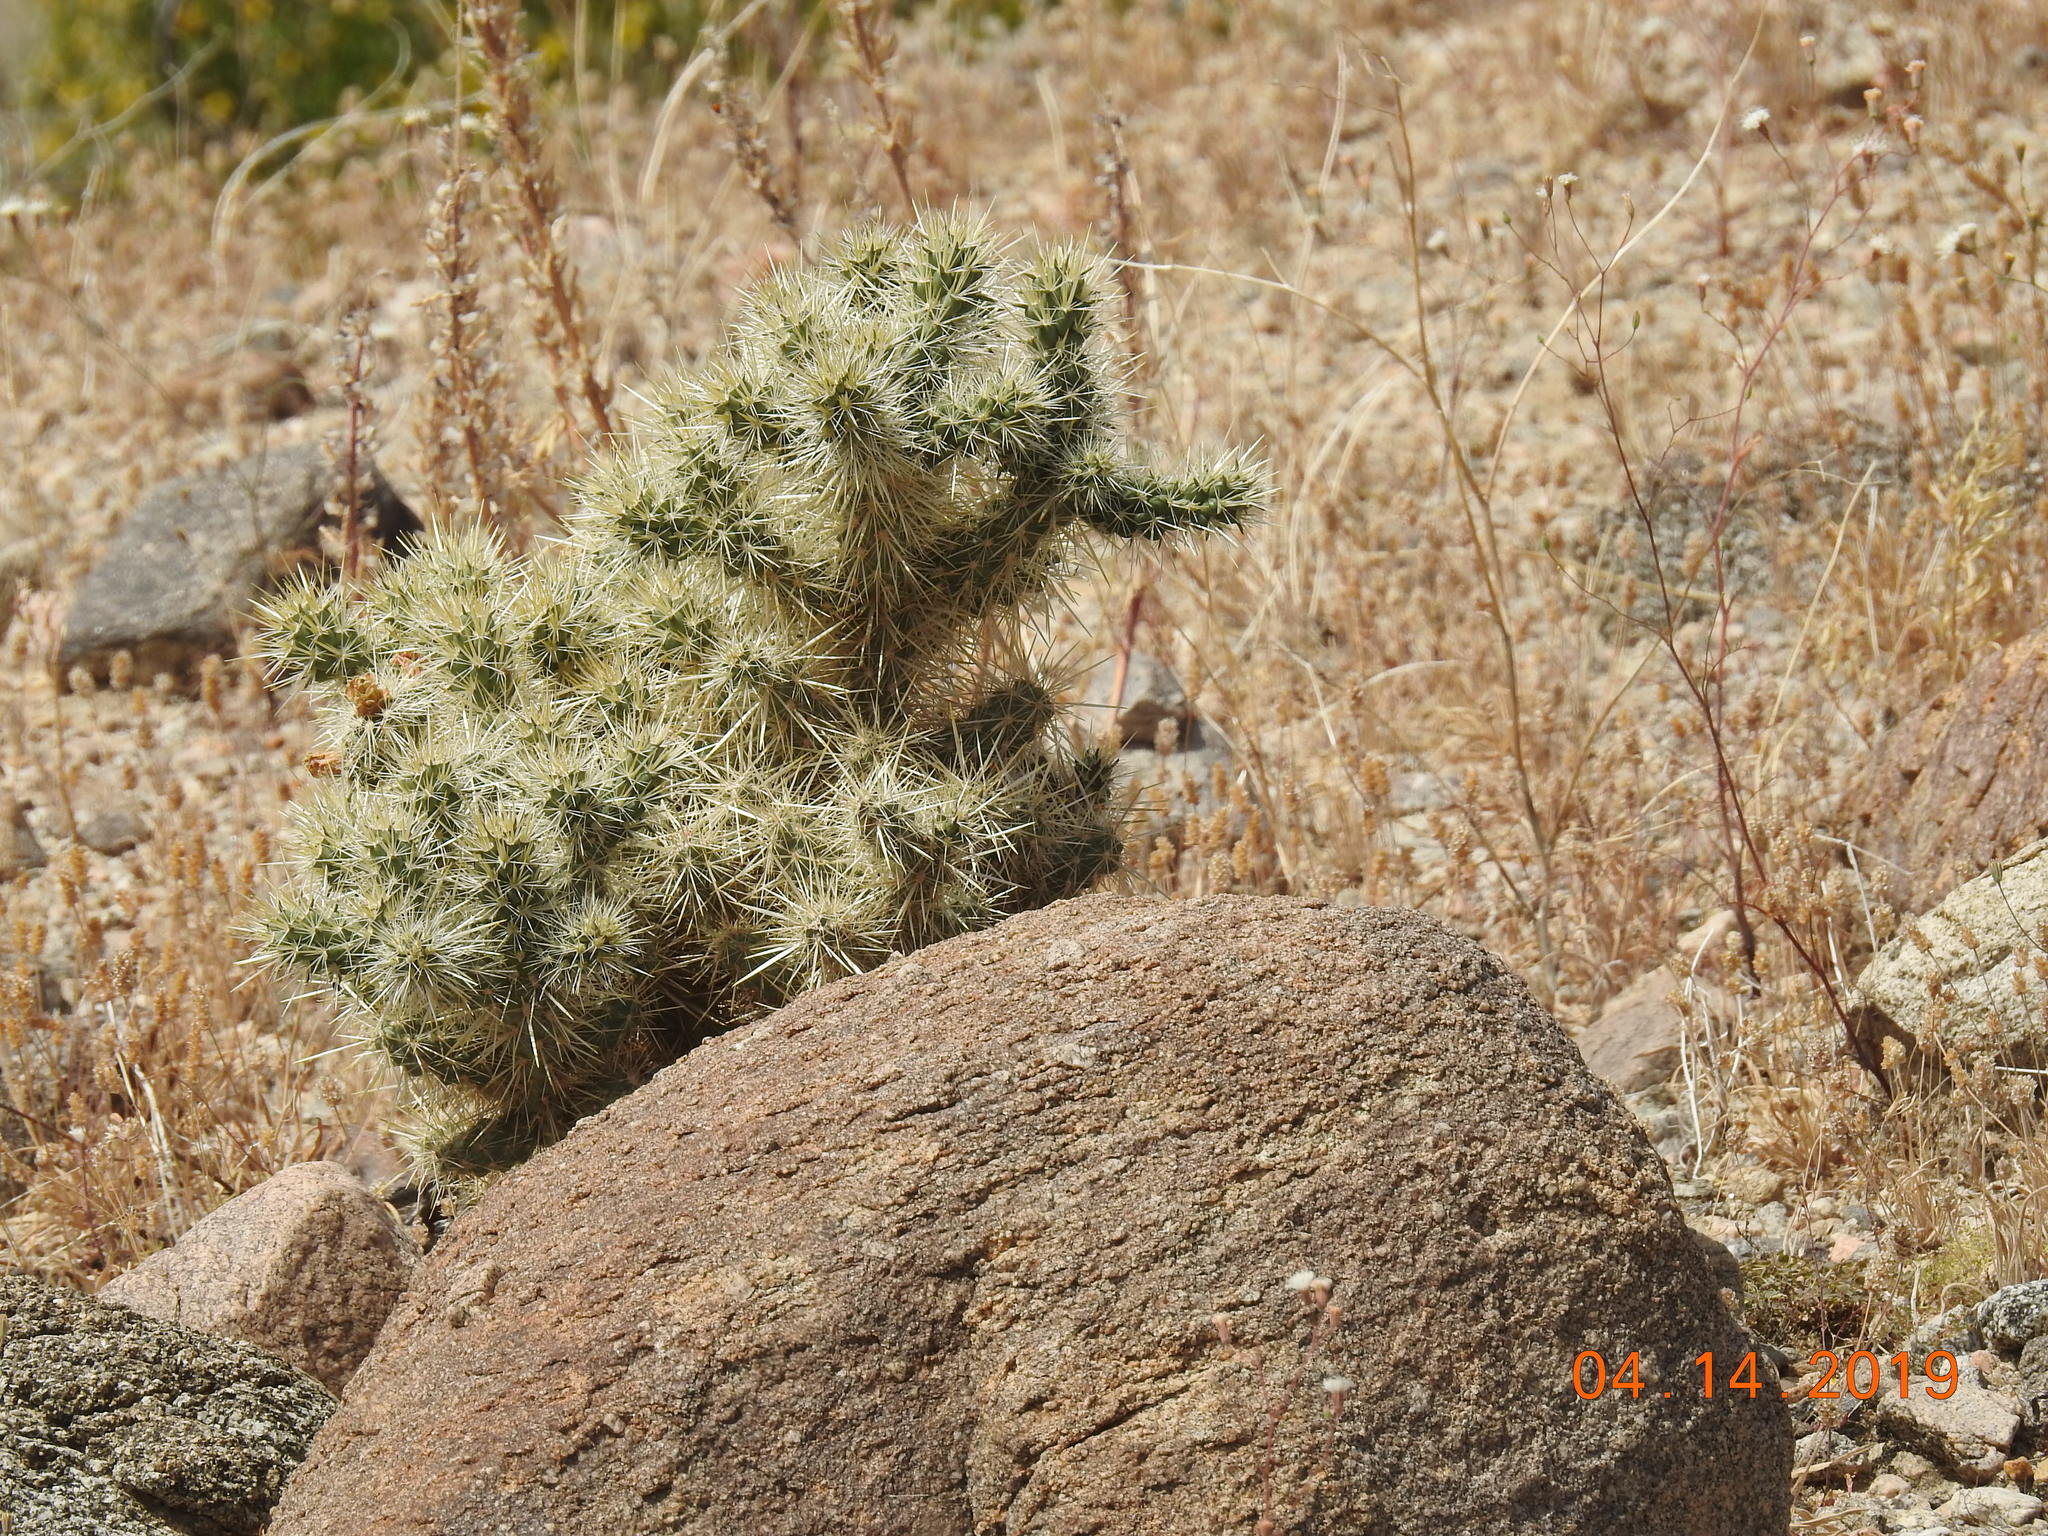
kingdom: Plantae
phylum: Tracheophyta
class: Magnoliopsida
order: Caryophyllales
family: Cactaceae
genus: Cylindropuntia
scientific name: Cylindropuntia echinocarpa
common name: Ground cholla
